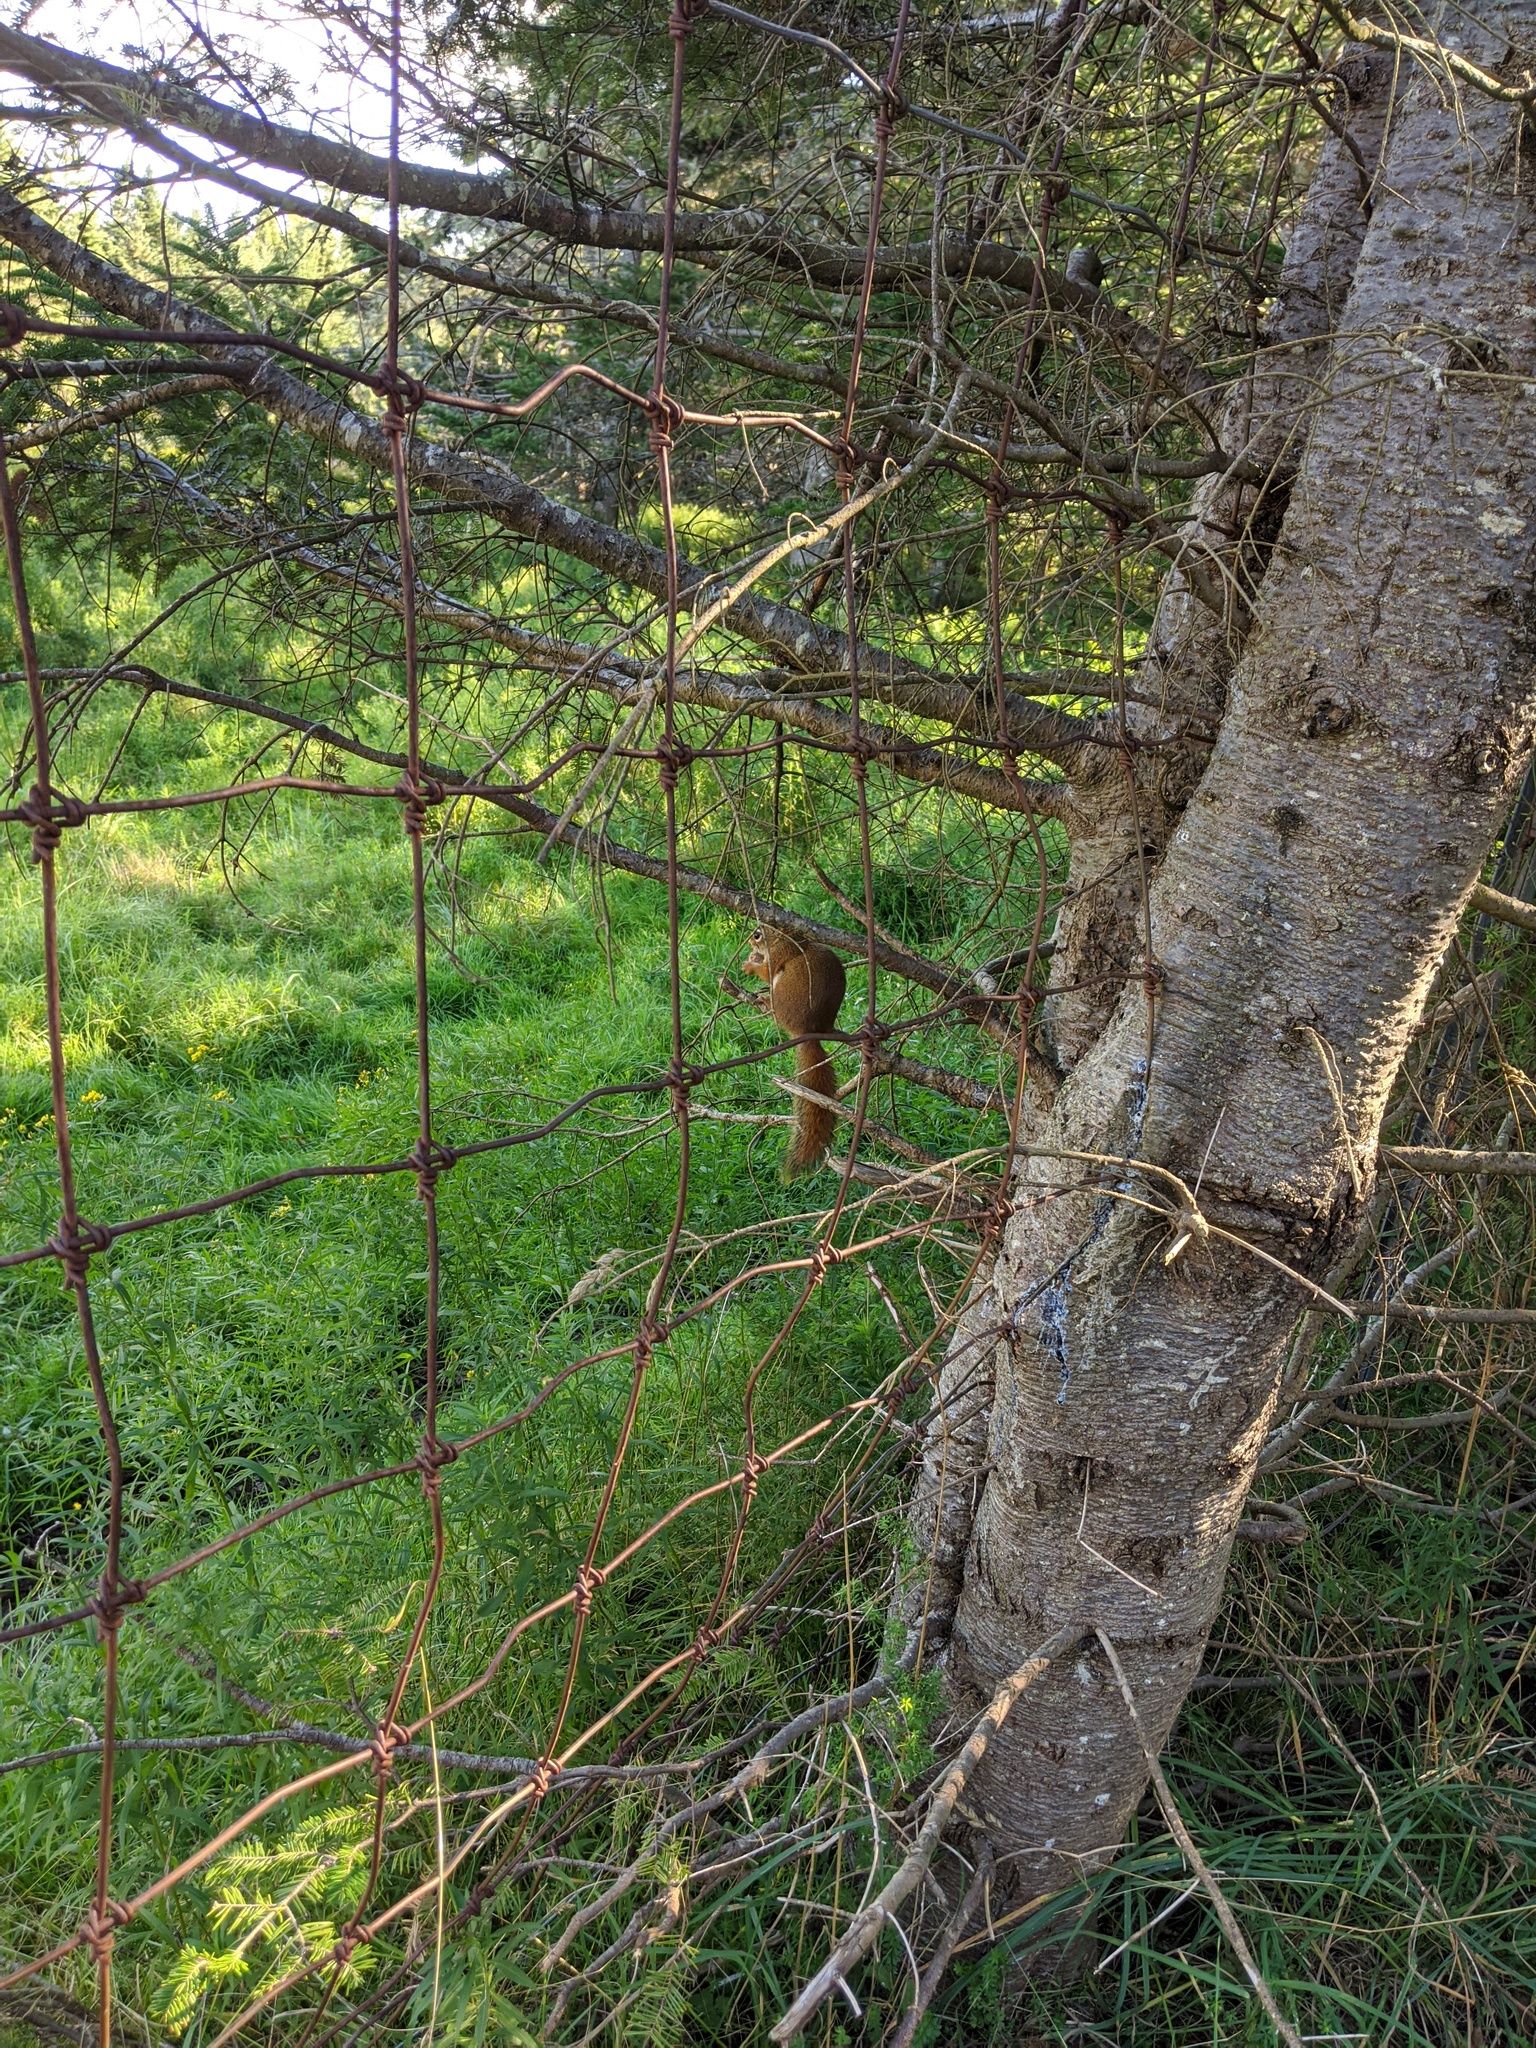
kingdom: Animalia
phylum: Chordata
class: Mammalia
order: Rodentia
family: Sciuridae
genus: Tamiasciurus
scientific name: Tamiasciurus hudsonicus
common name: Red squirrel
